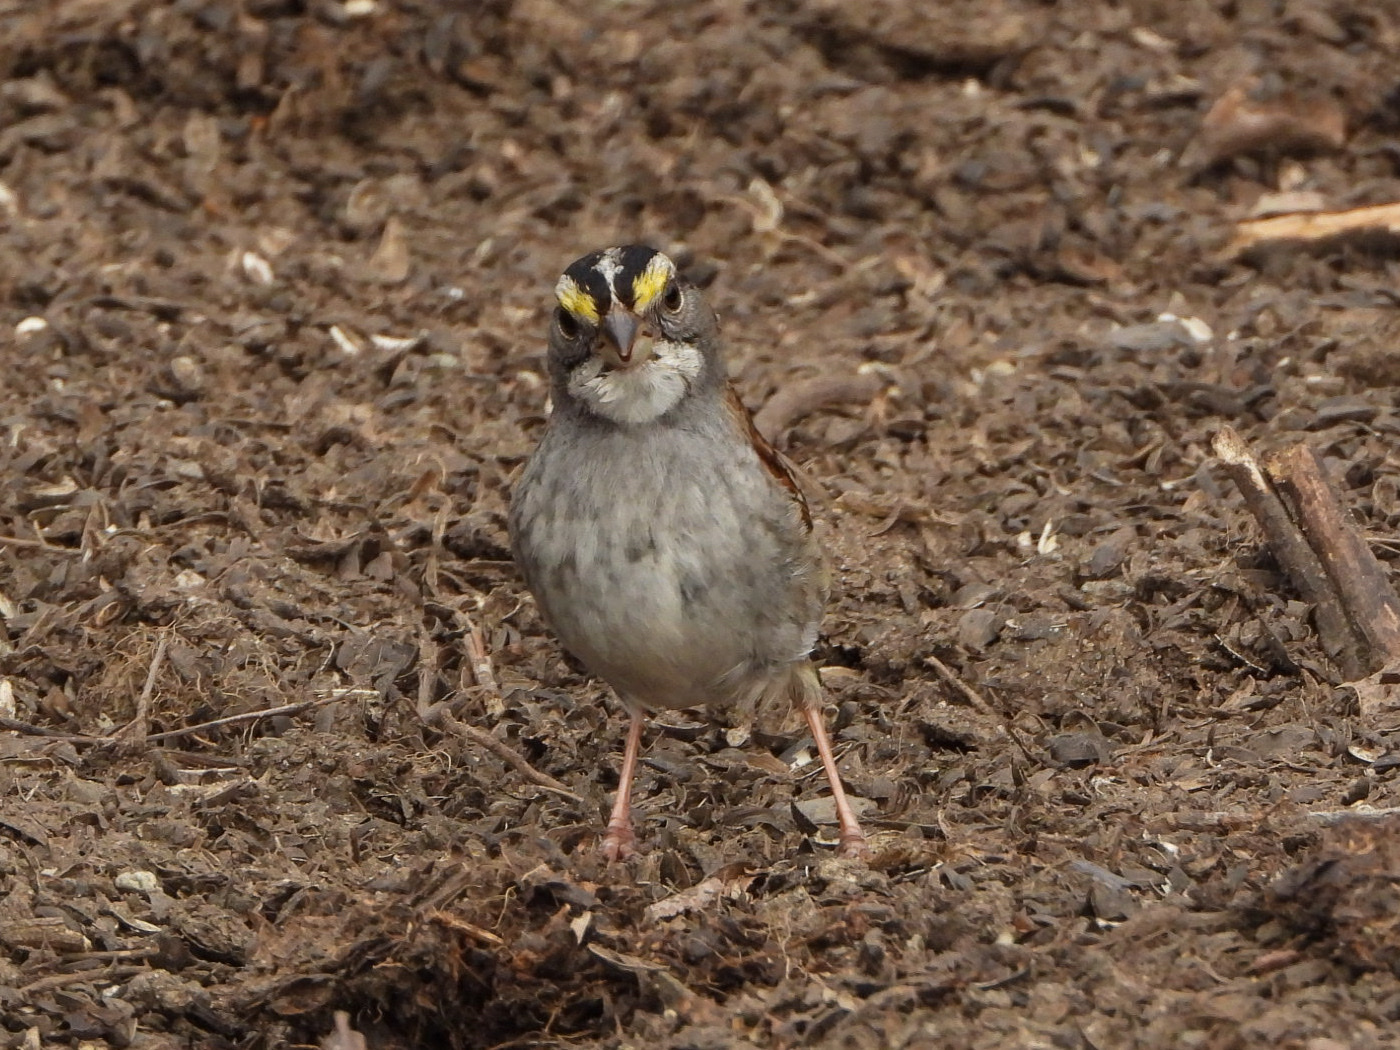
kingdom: Animalia
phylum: Chordata
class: Aves
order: Passeriformes
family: Passerellidae
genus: Zonotrichia
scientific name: Zonotrichia albicollis
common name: White-throated sparrow
